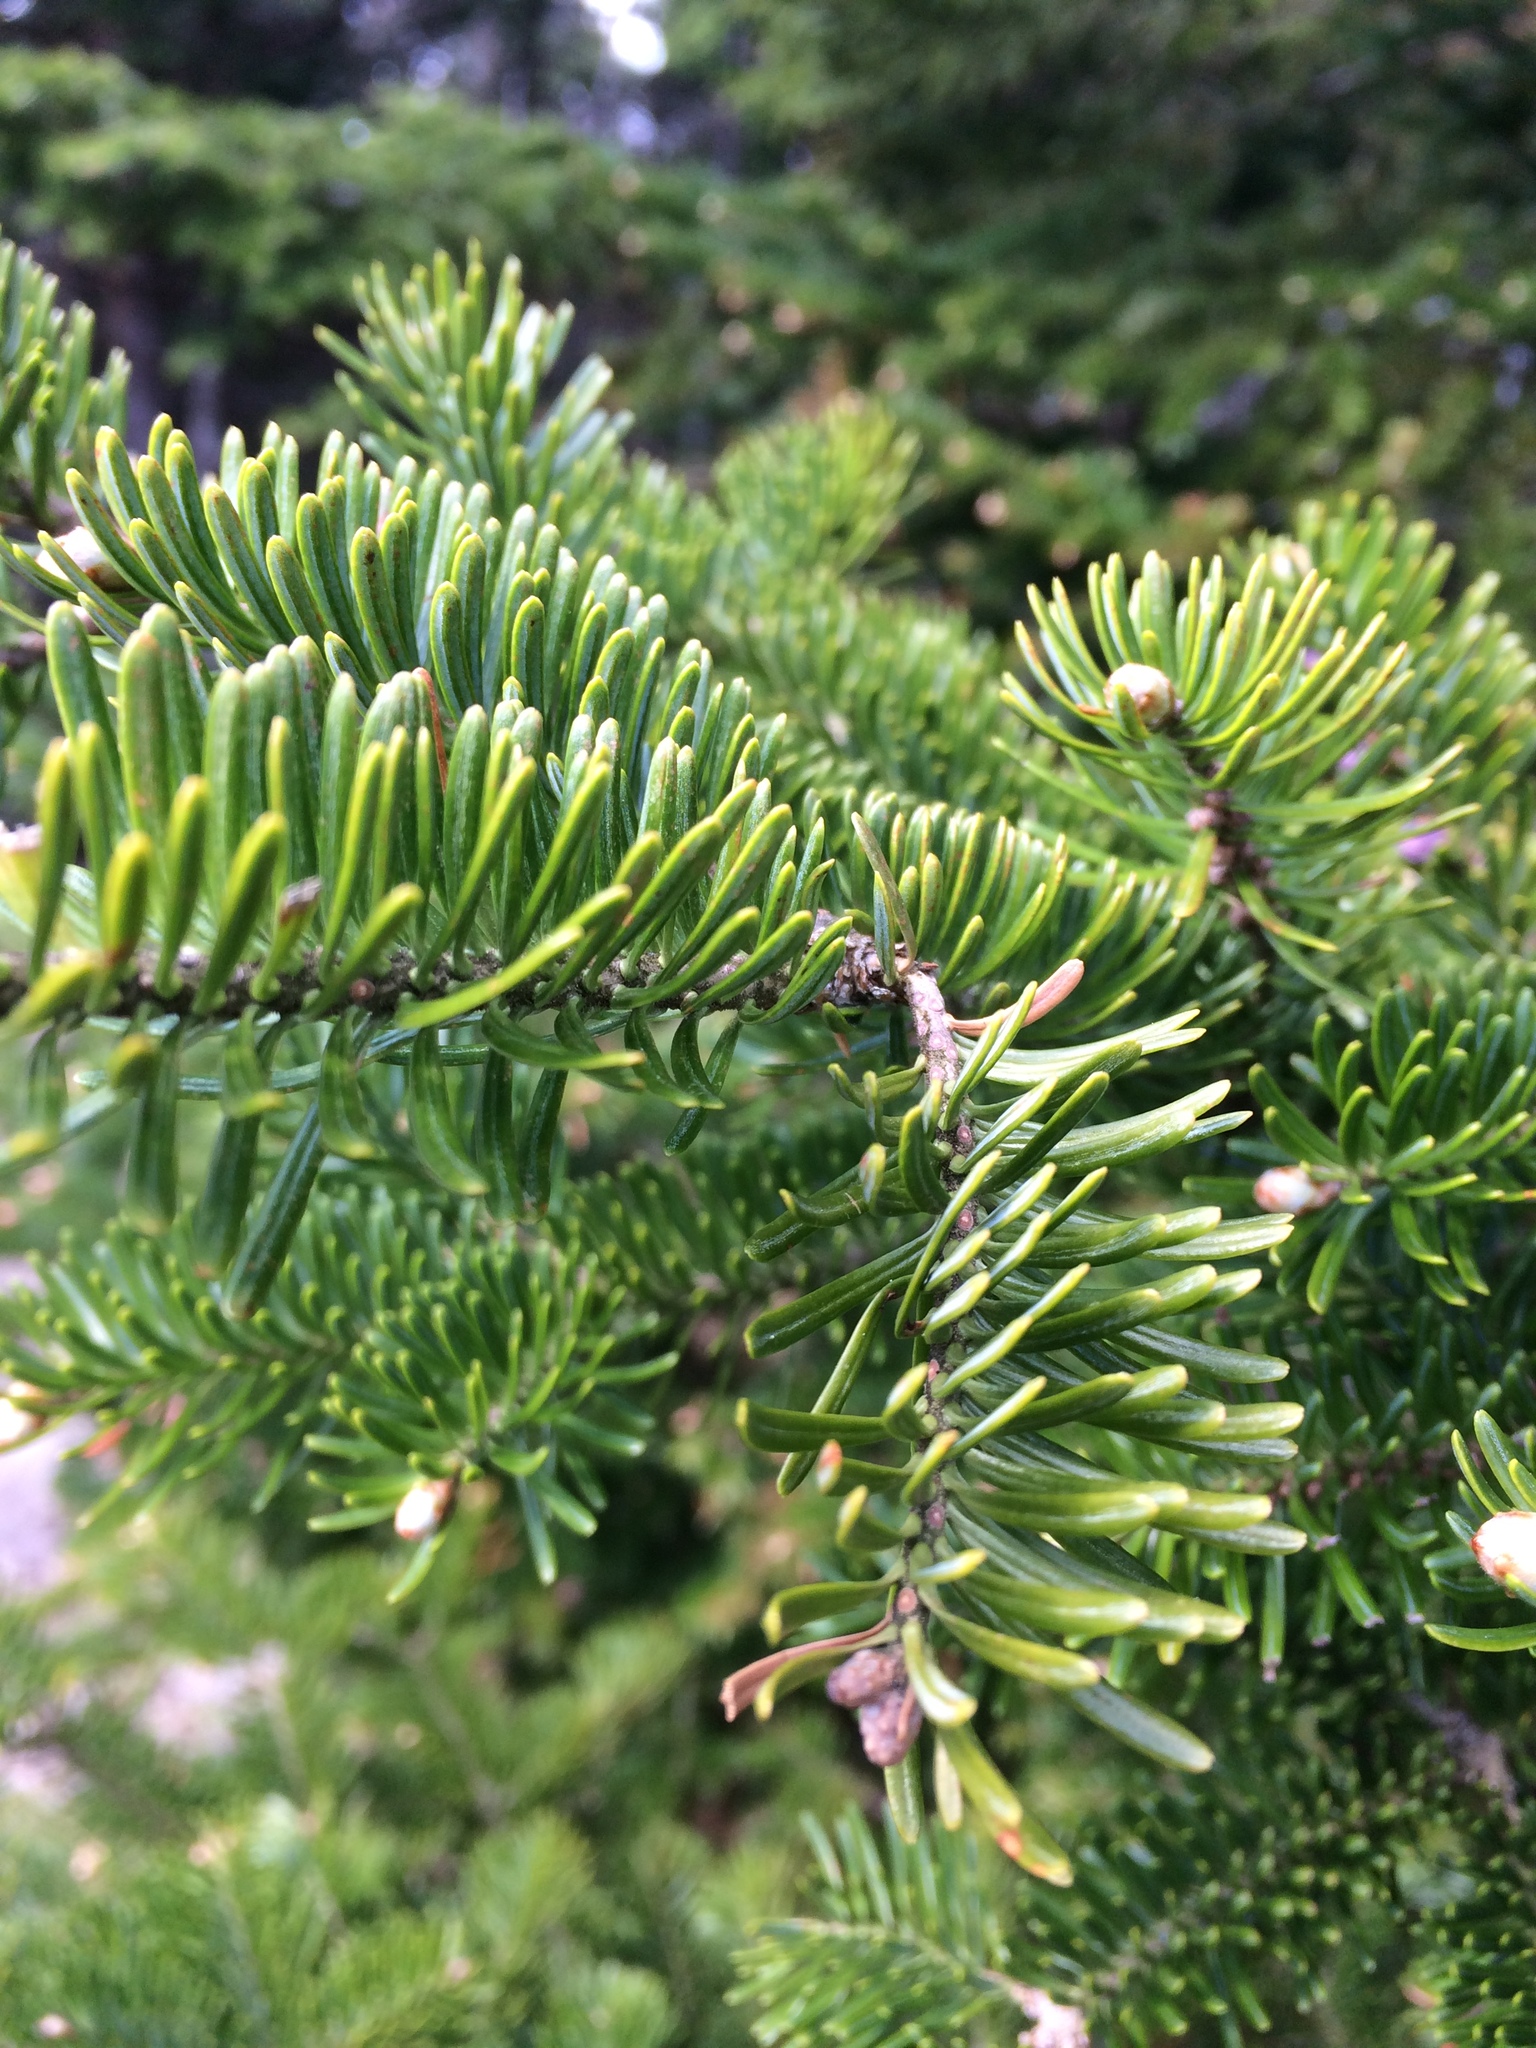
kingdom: Plantae
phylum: Tracheophyta
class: Pinopsida
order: Pinales
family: Pinaceae
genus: Abies
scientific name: Abies balsamea
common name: Balsam fir
